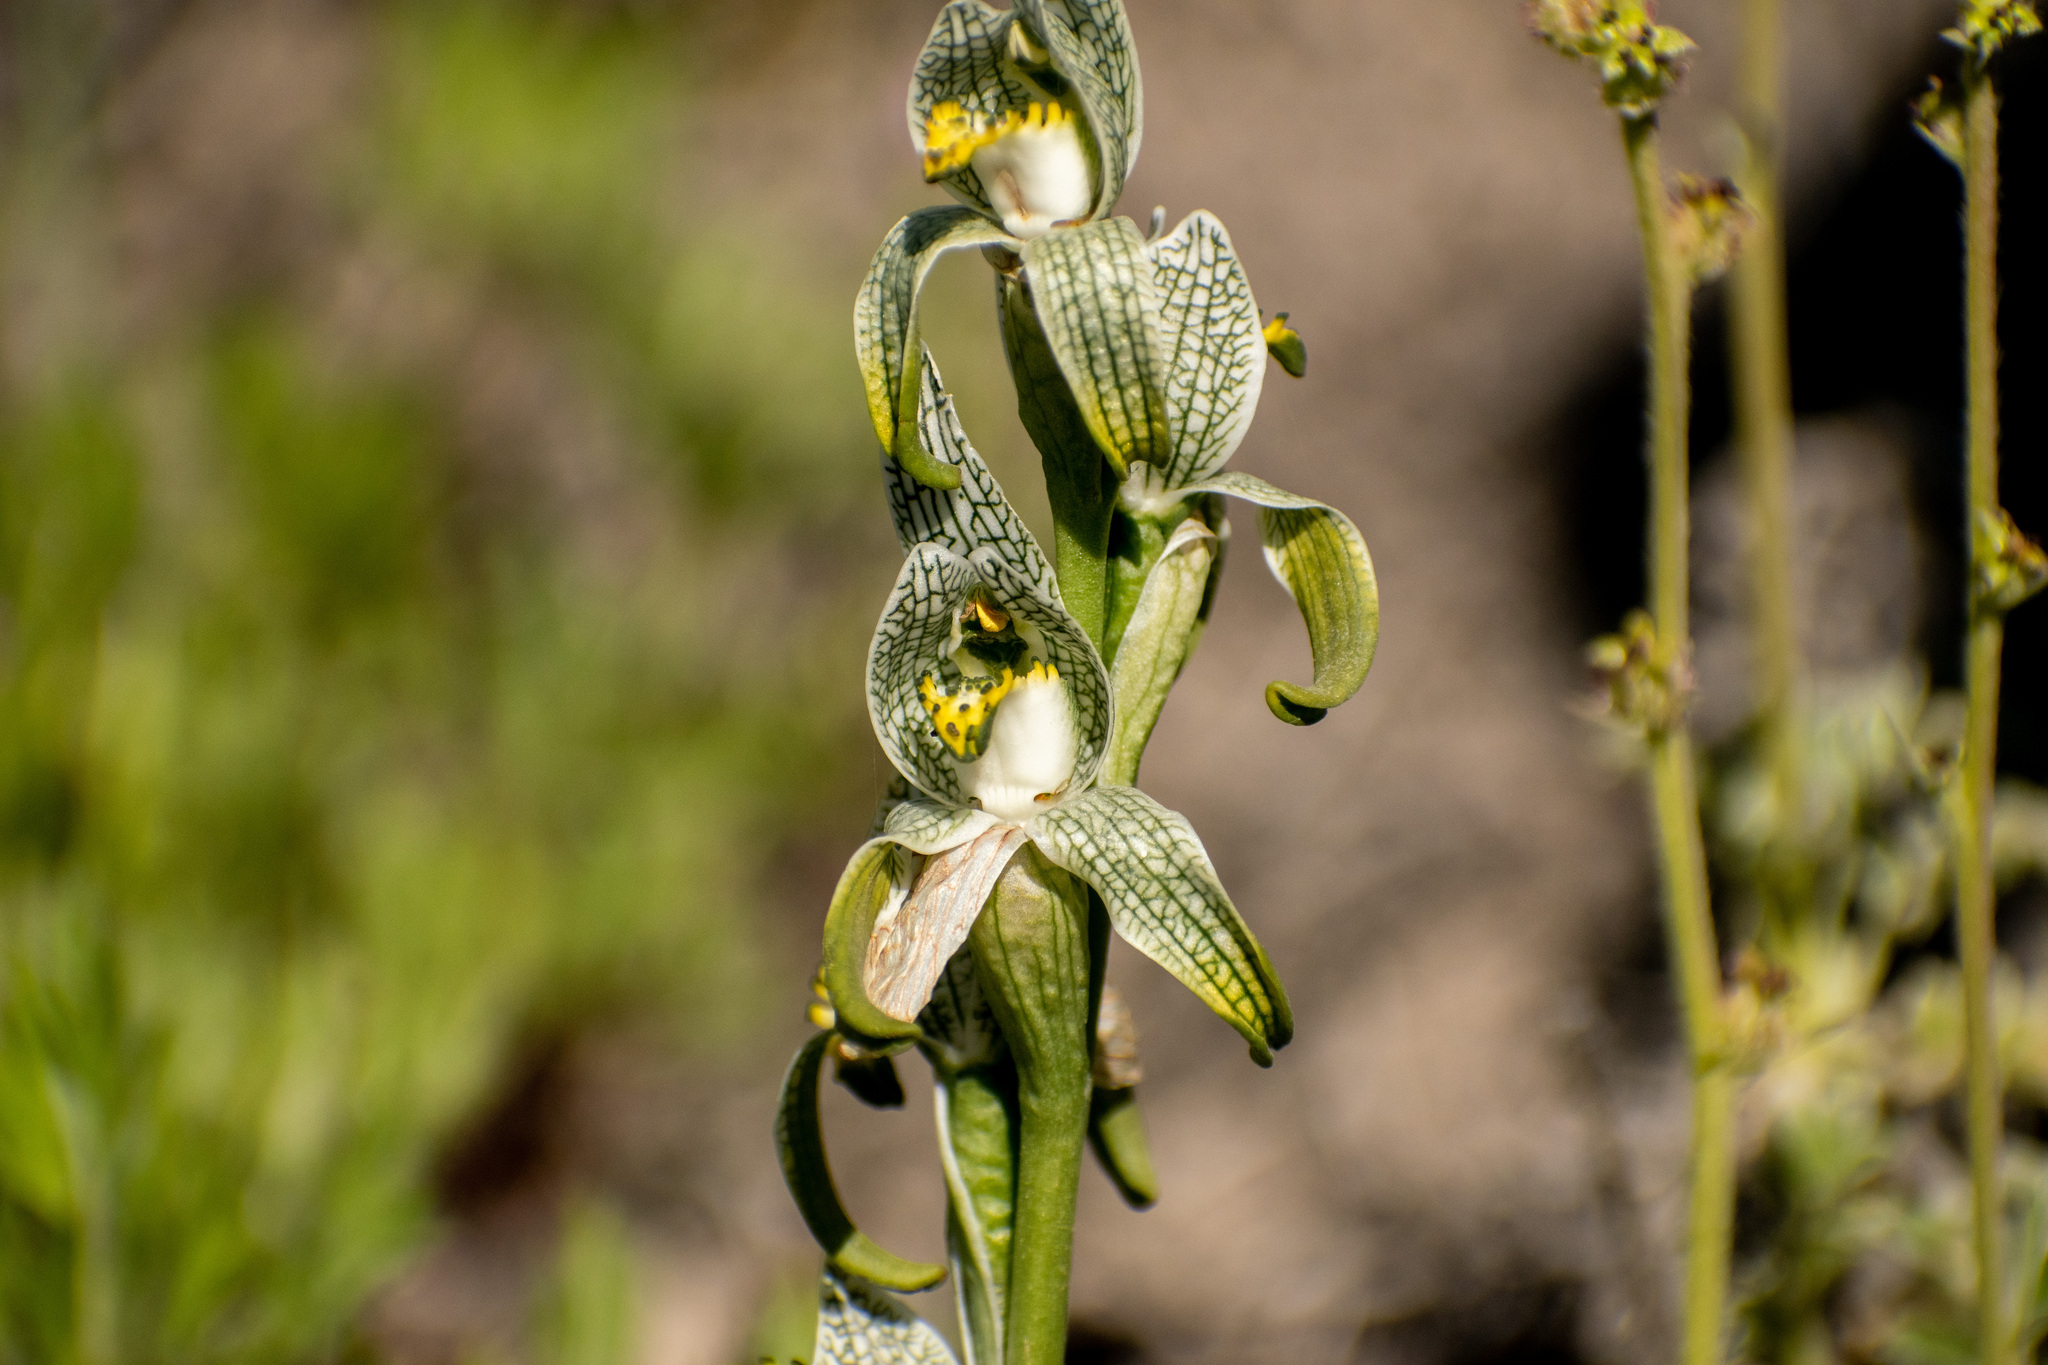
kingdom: Plantae
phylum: Tracheophyta
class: Liliopsida
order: Asparagales
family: Orchidaceae
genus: Chloraea
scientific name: Chloraea magellanica
